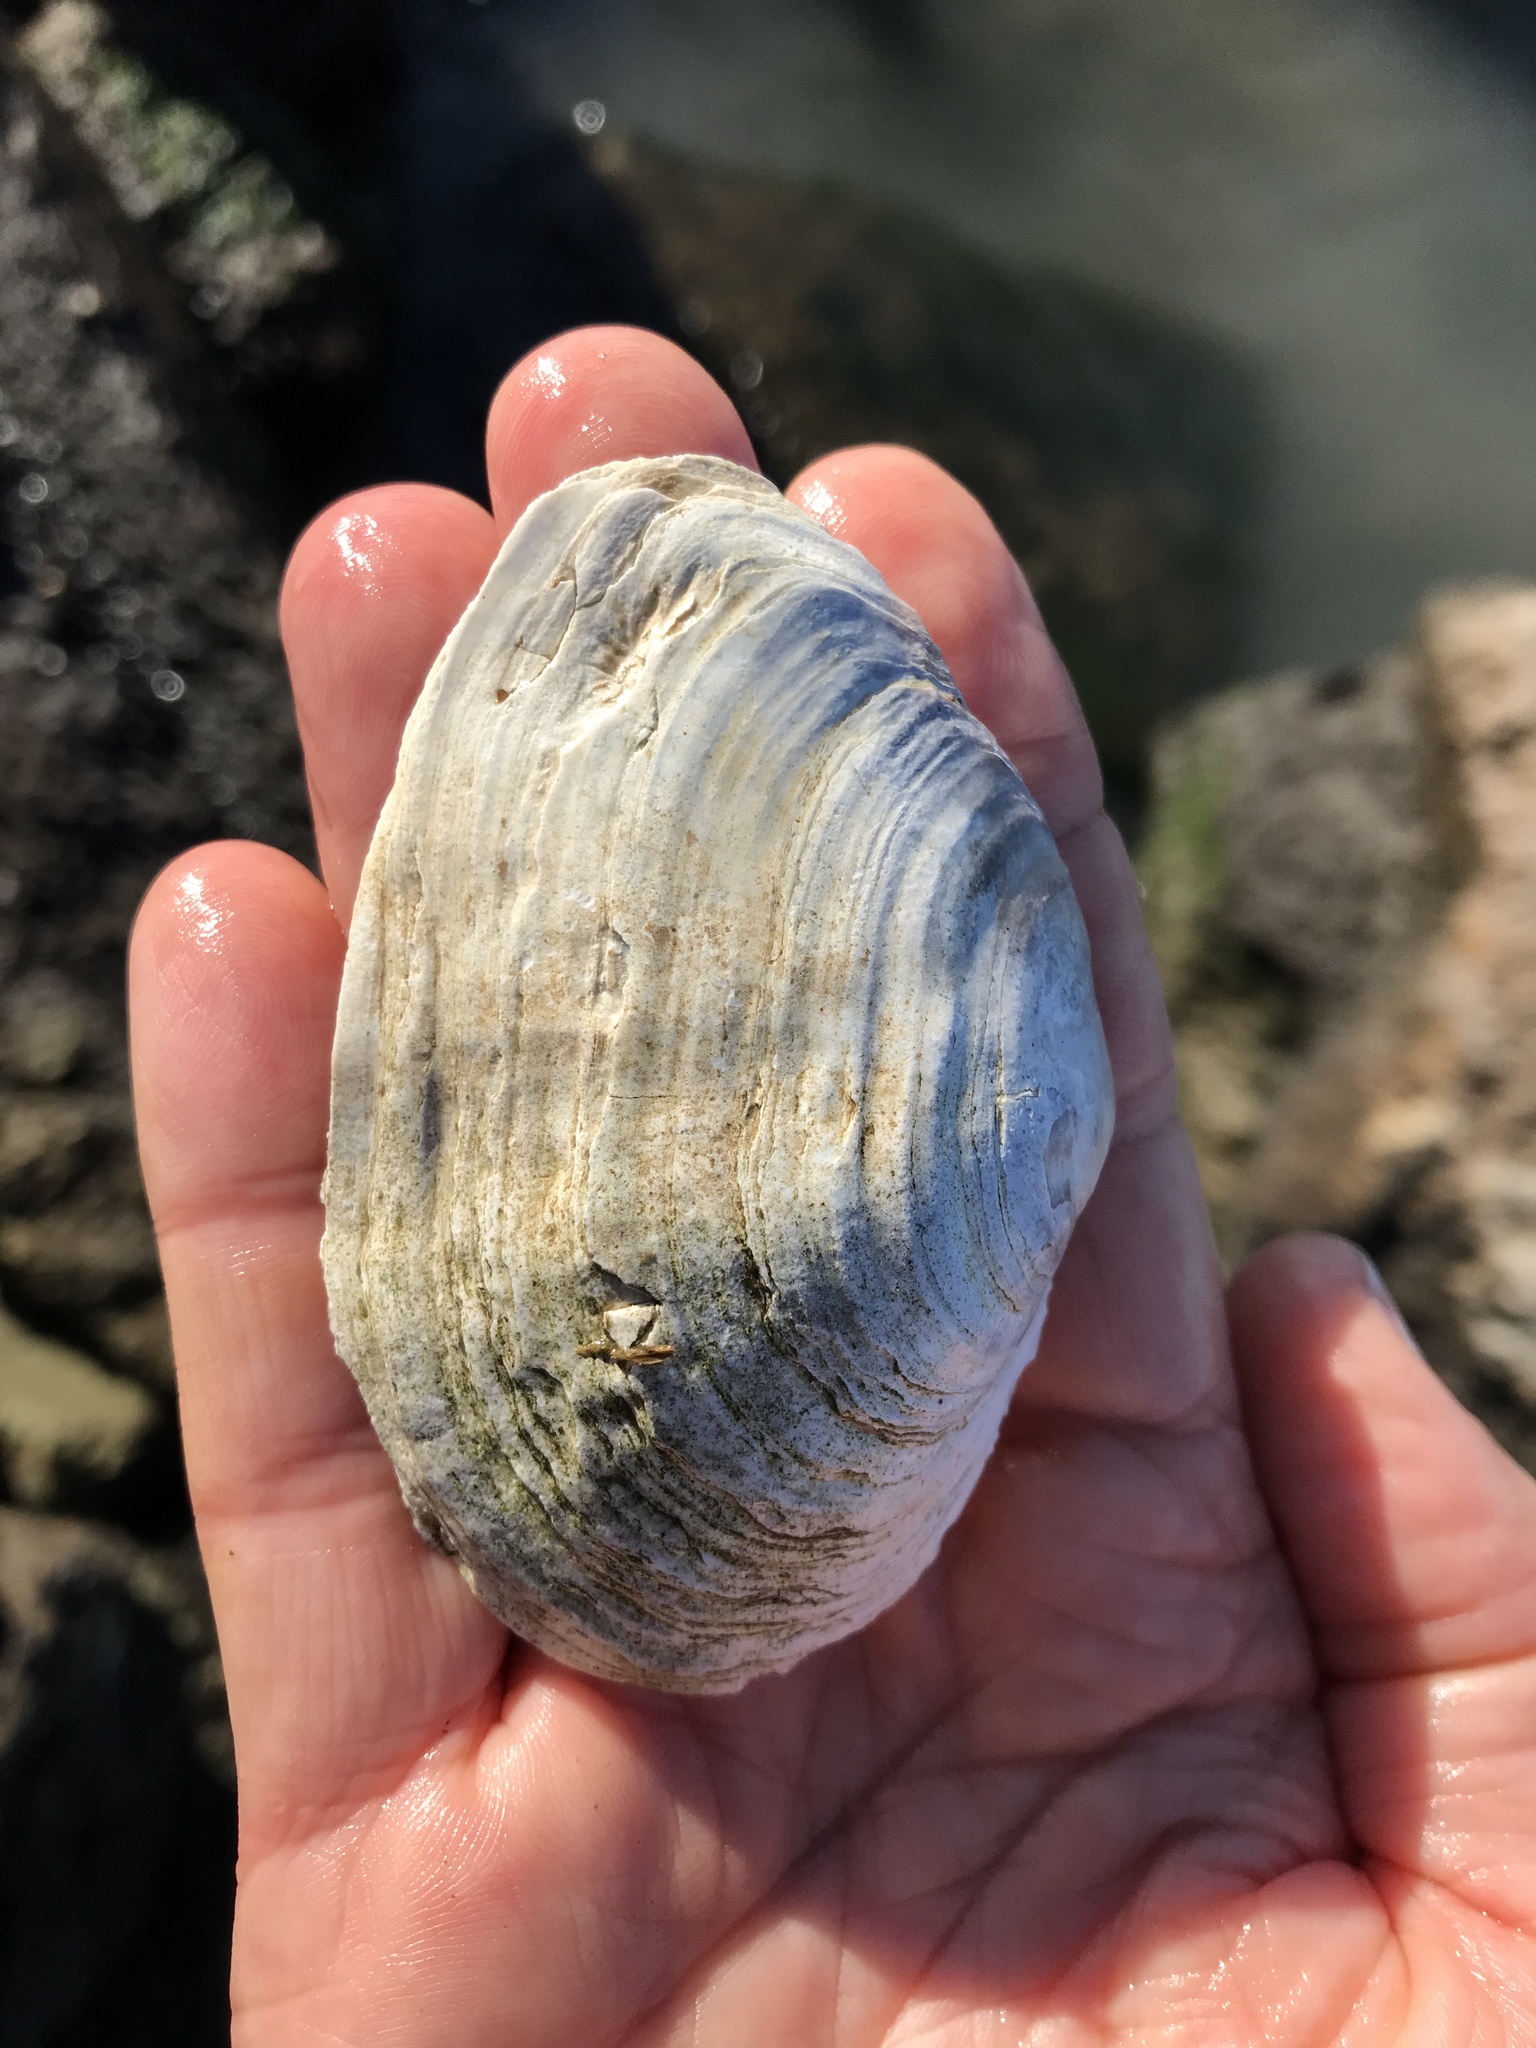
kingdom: Animalia
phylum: Mollusca
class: Bivalvia
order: Myida
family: Myidae
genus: Mya
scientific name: Mya arenaria
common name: Soft-shelled clam
